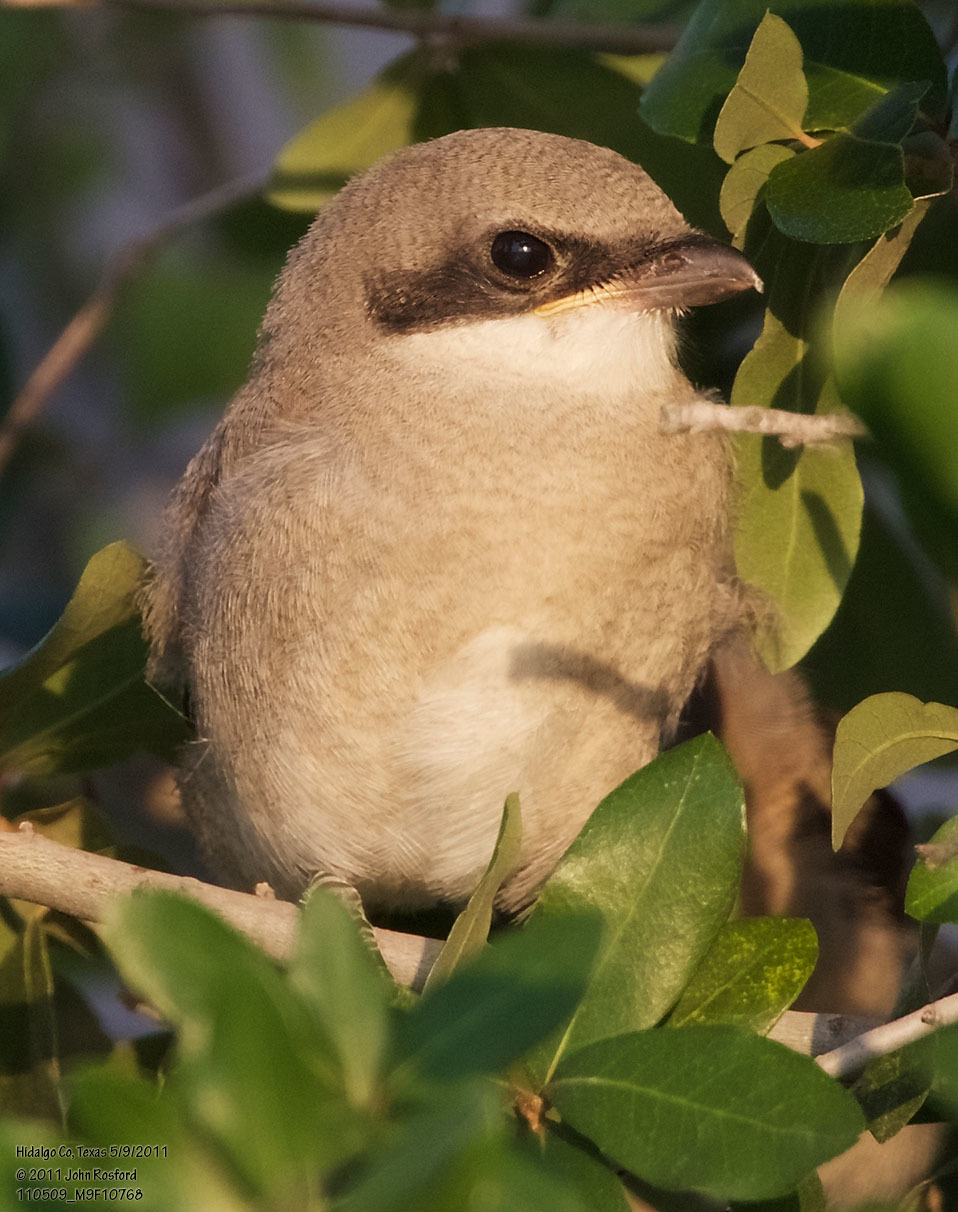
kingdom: Animalia
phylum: Chordata
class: Aves
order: Passeriformes
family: Laniidae
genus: Lanius
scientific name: Lanius ludovicianus
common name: Loggerhead shrike
